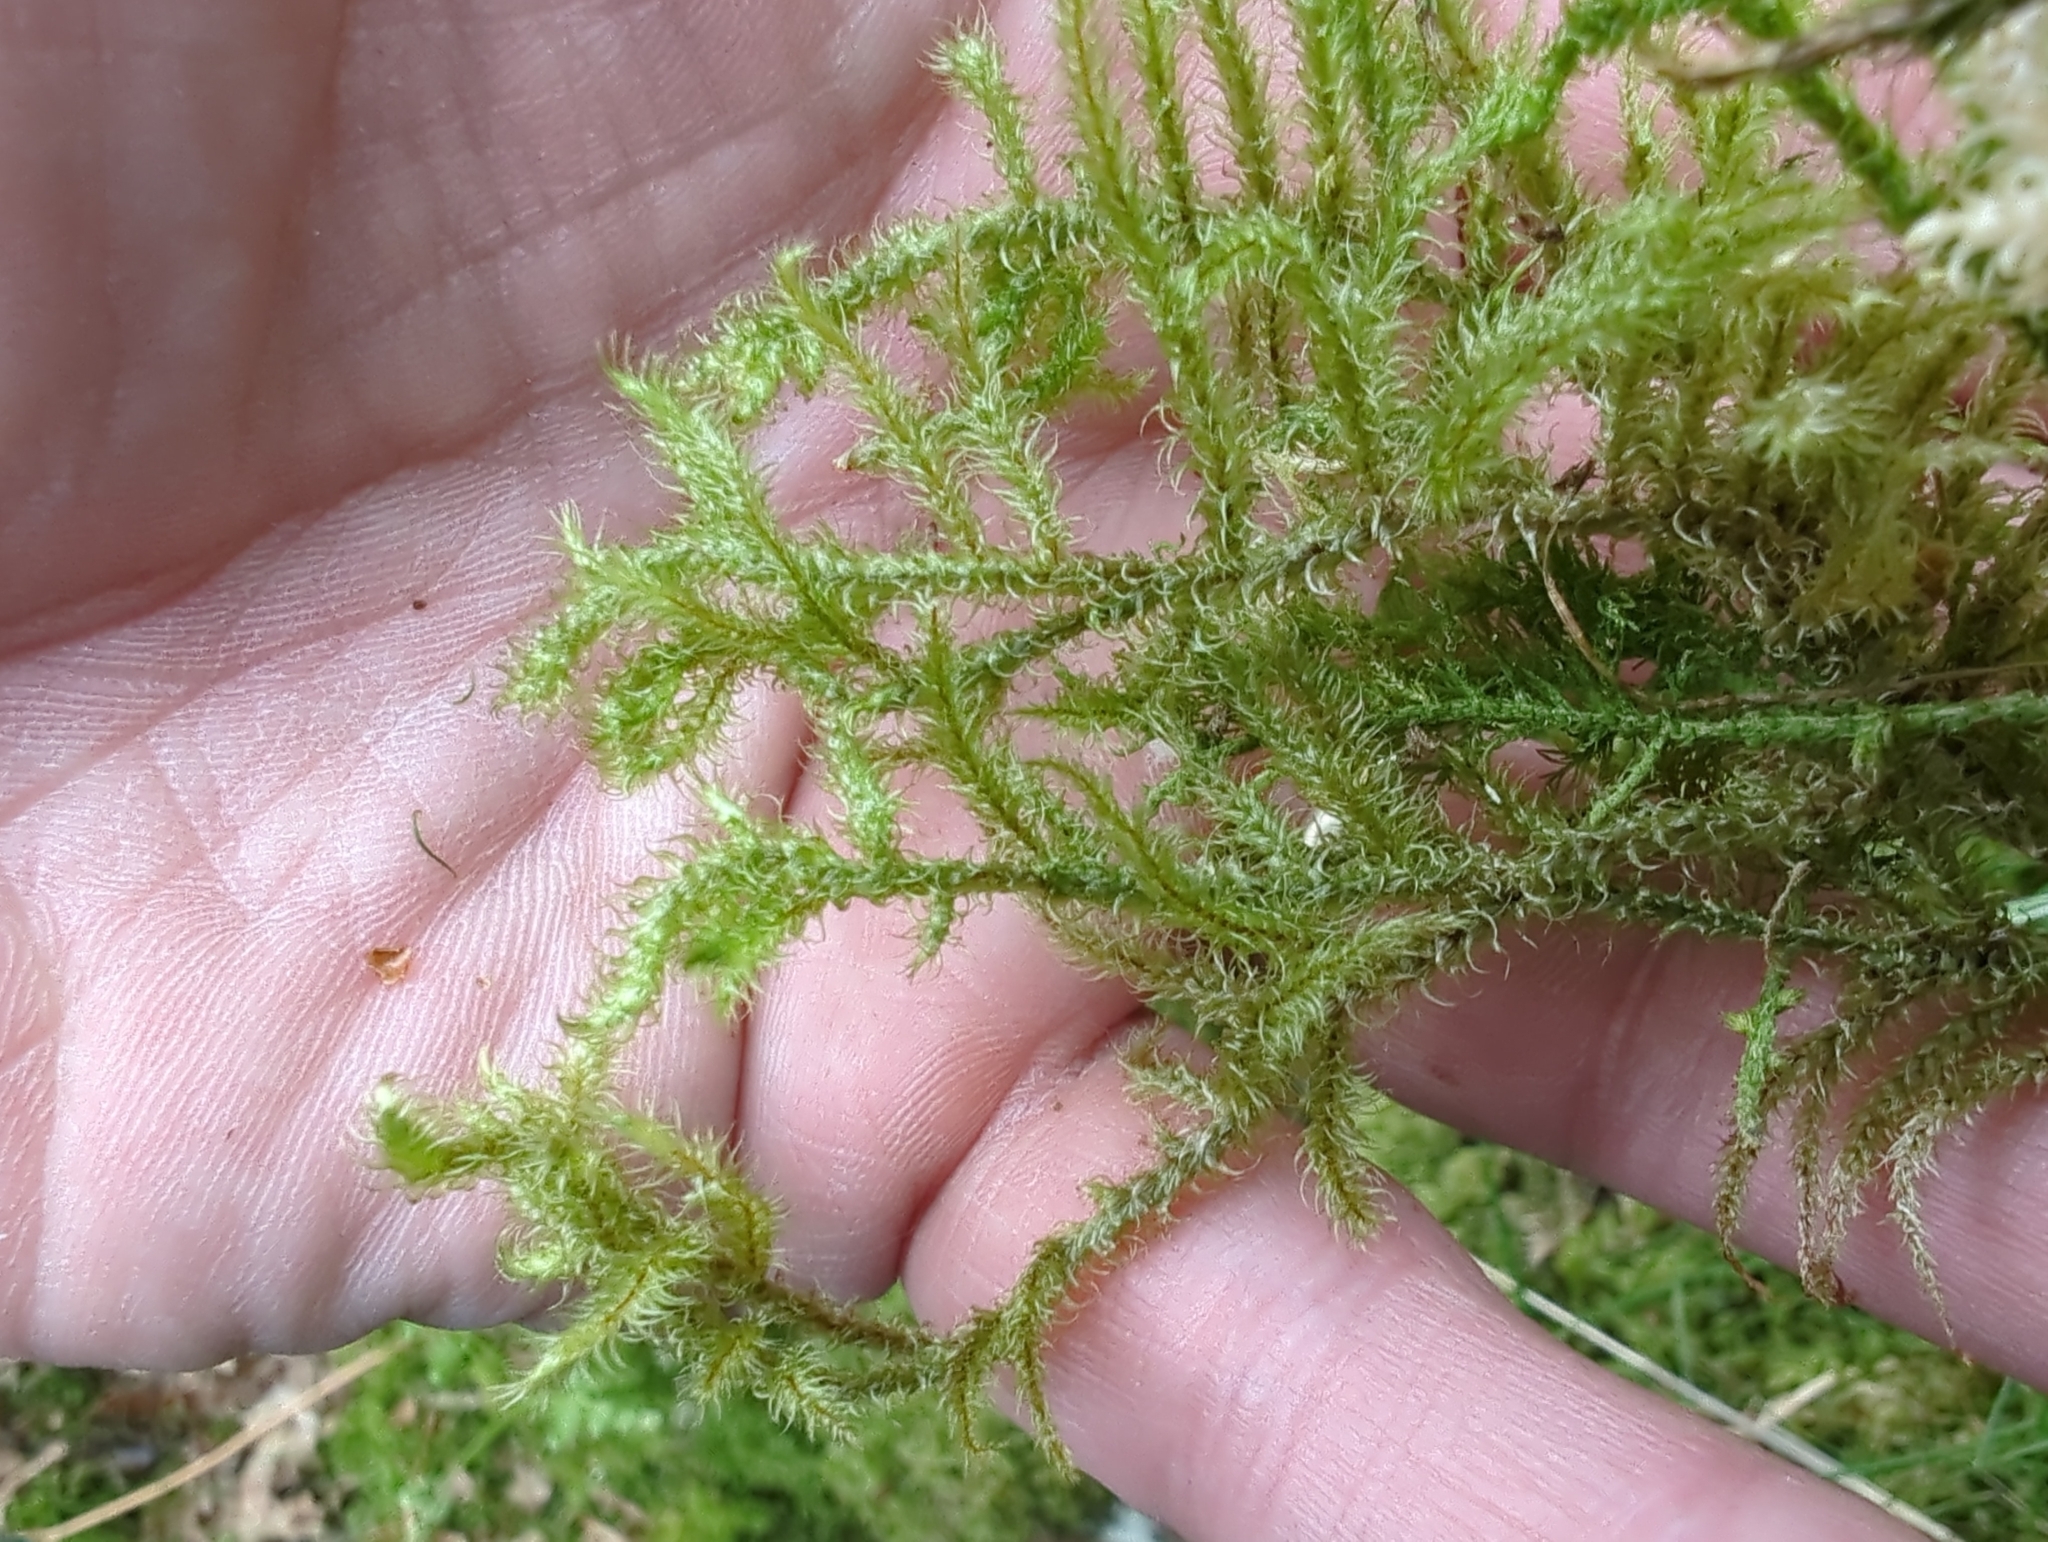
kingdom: Plantae
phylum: Bryophyta
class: Bryopsida
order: Hypnales
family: Hylocomiaceae
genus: Rhytidiadelphus
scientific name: Rhytidiadelphus loreus
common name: Lanky moss
